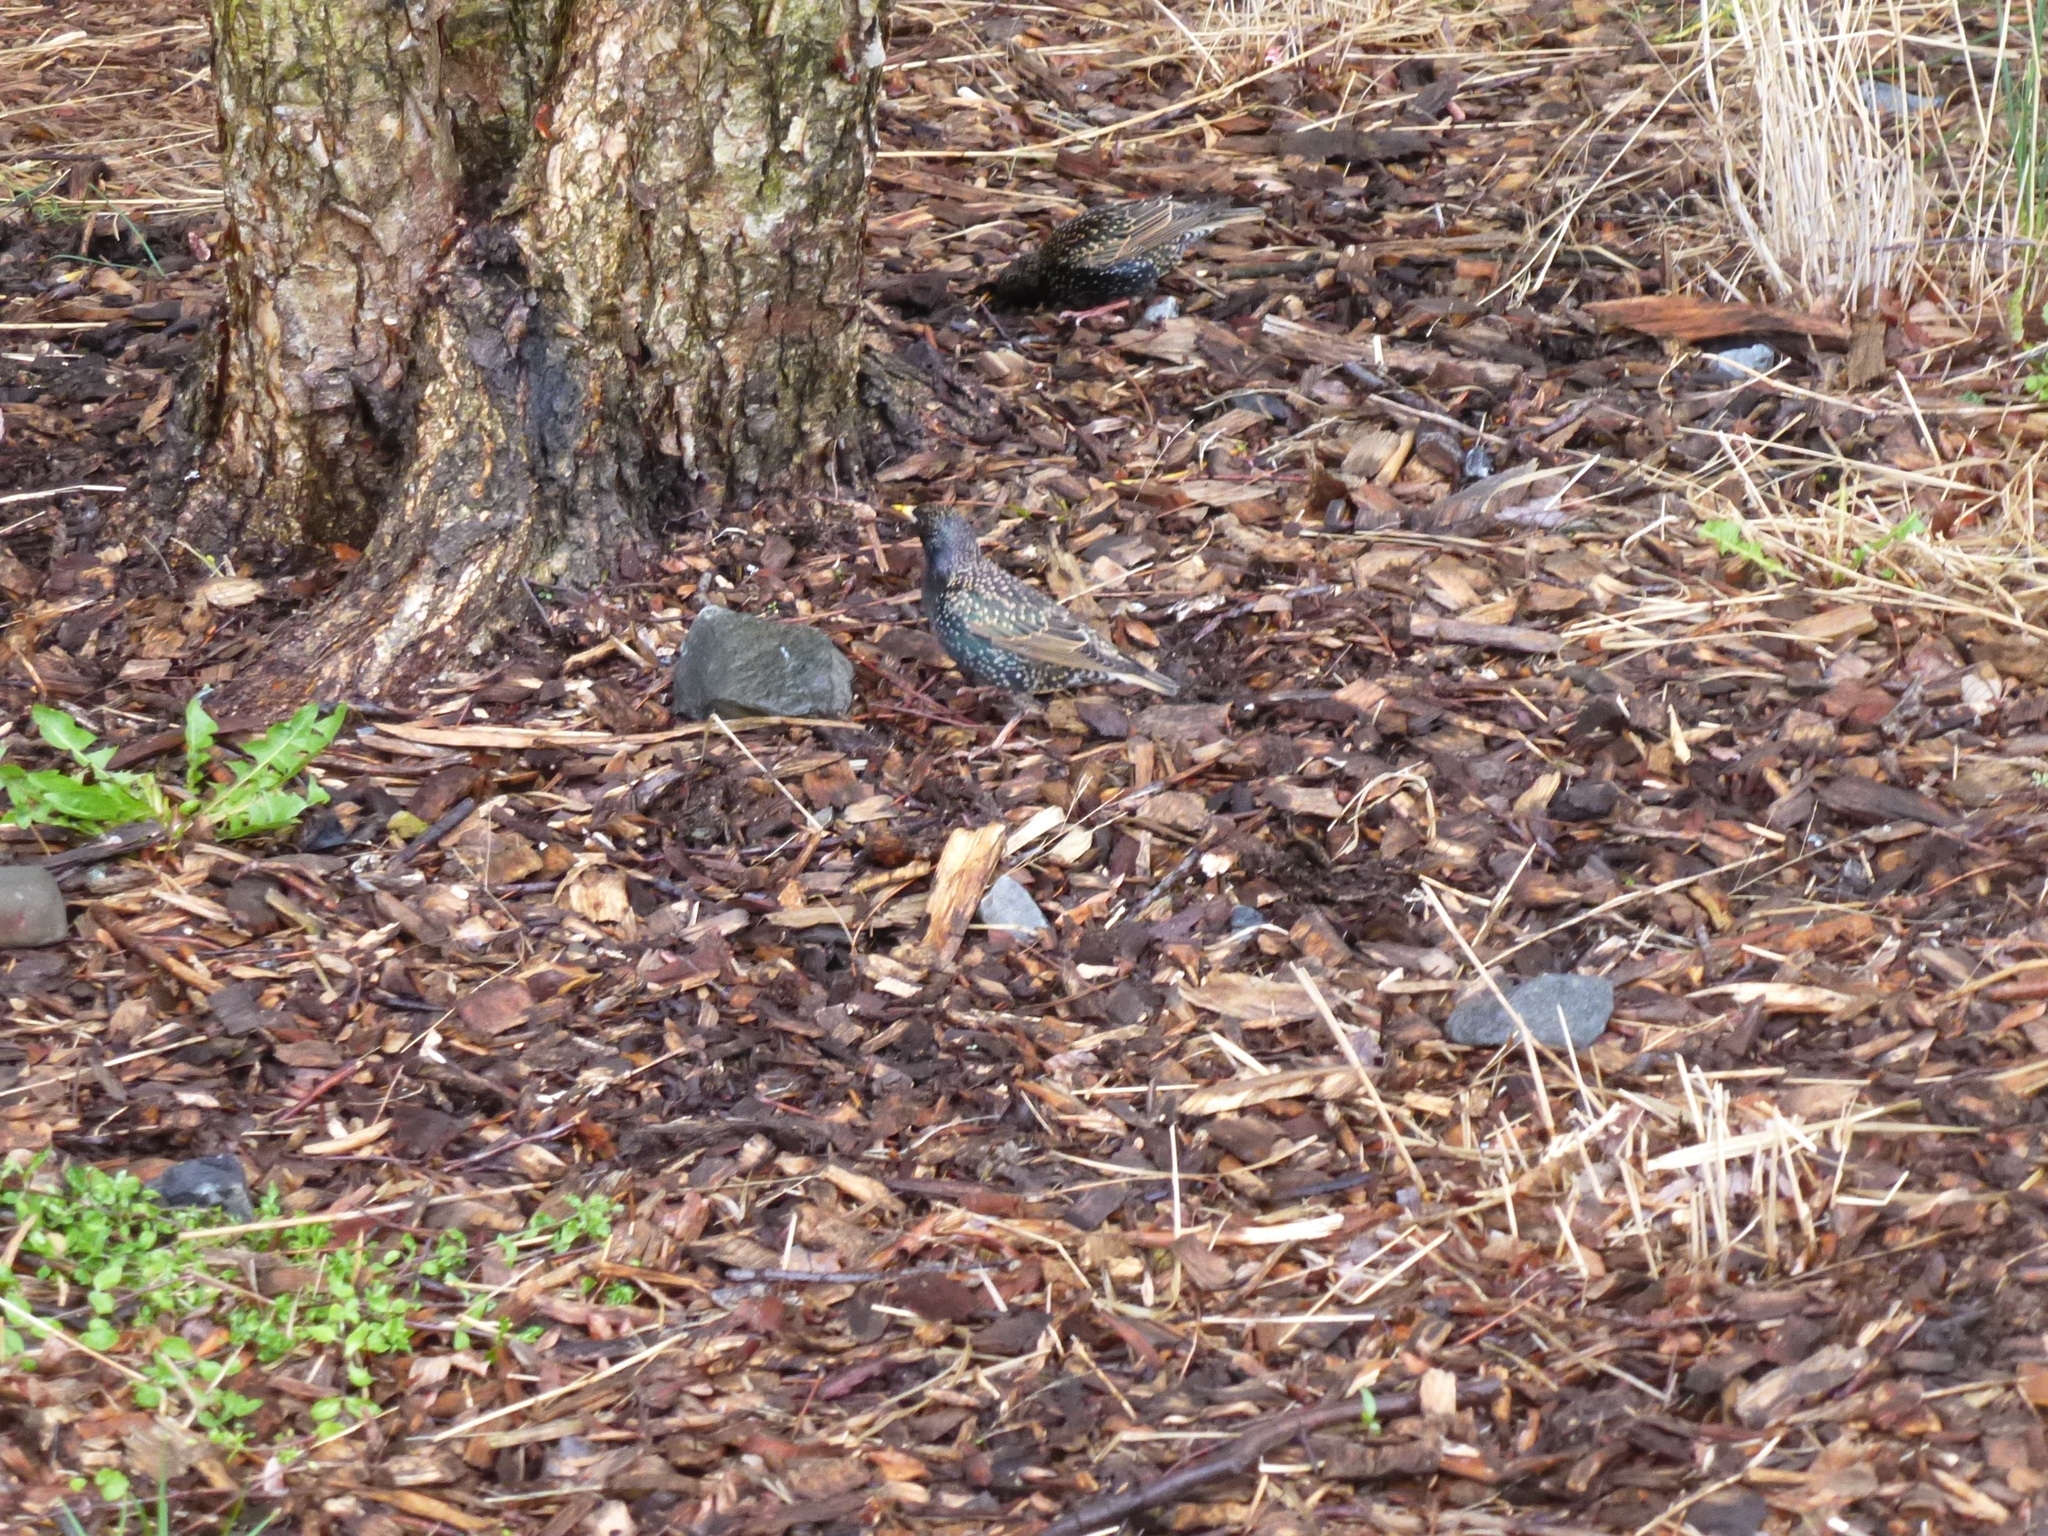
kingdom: Animalia
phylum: Chordata
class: Aves
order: Passeriformes
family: Sturnidae
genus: Sturnus
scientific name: Sturnus vulgaris
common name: Common starling
